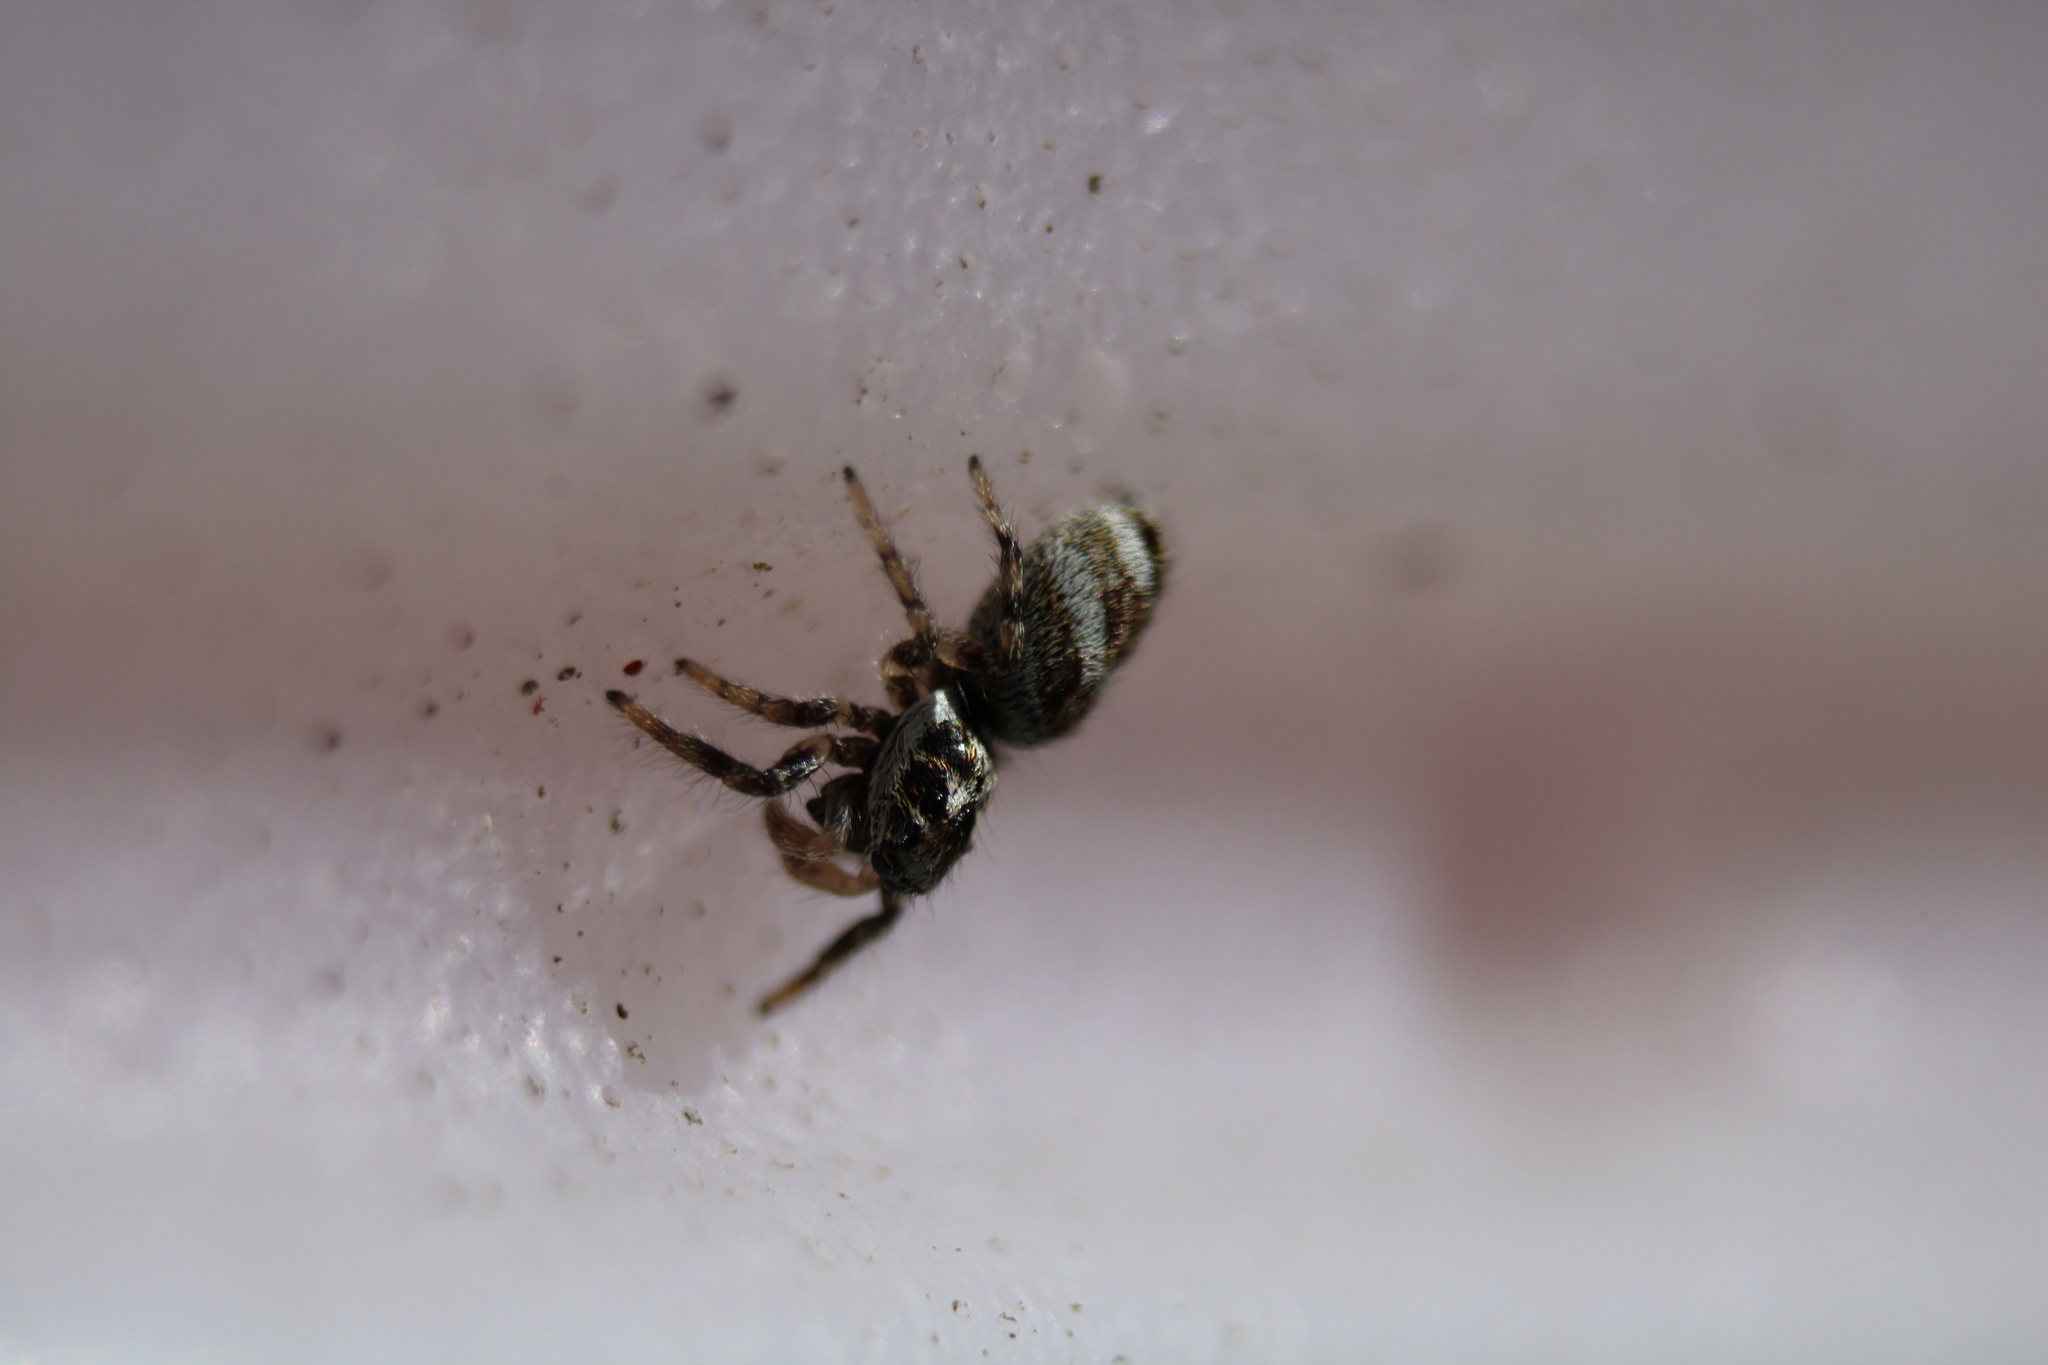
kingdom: Animalia
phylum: Arthropoda
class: Arachnida
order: Araneae
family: Salticidae
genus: Salticus
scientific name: Salticus scenicus
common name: Zebra jumper
